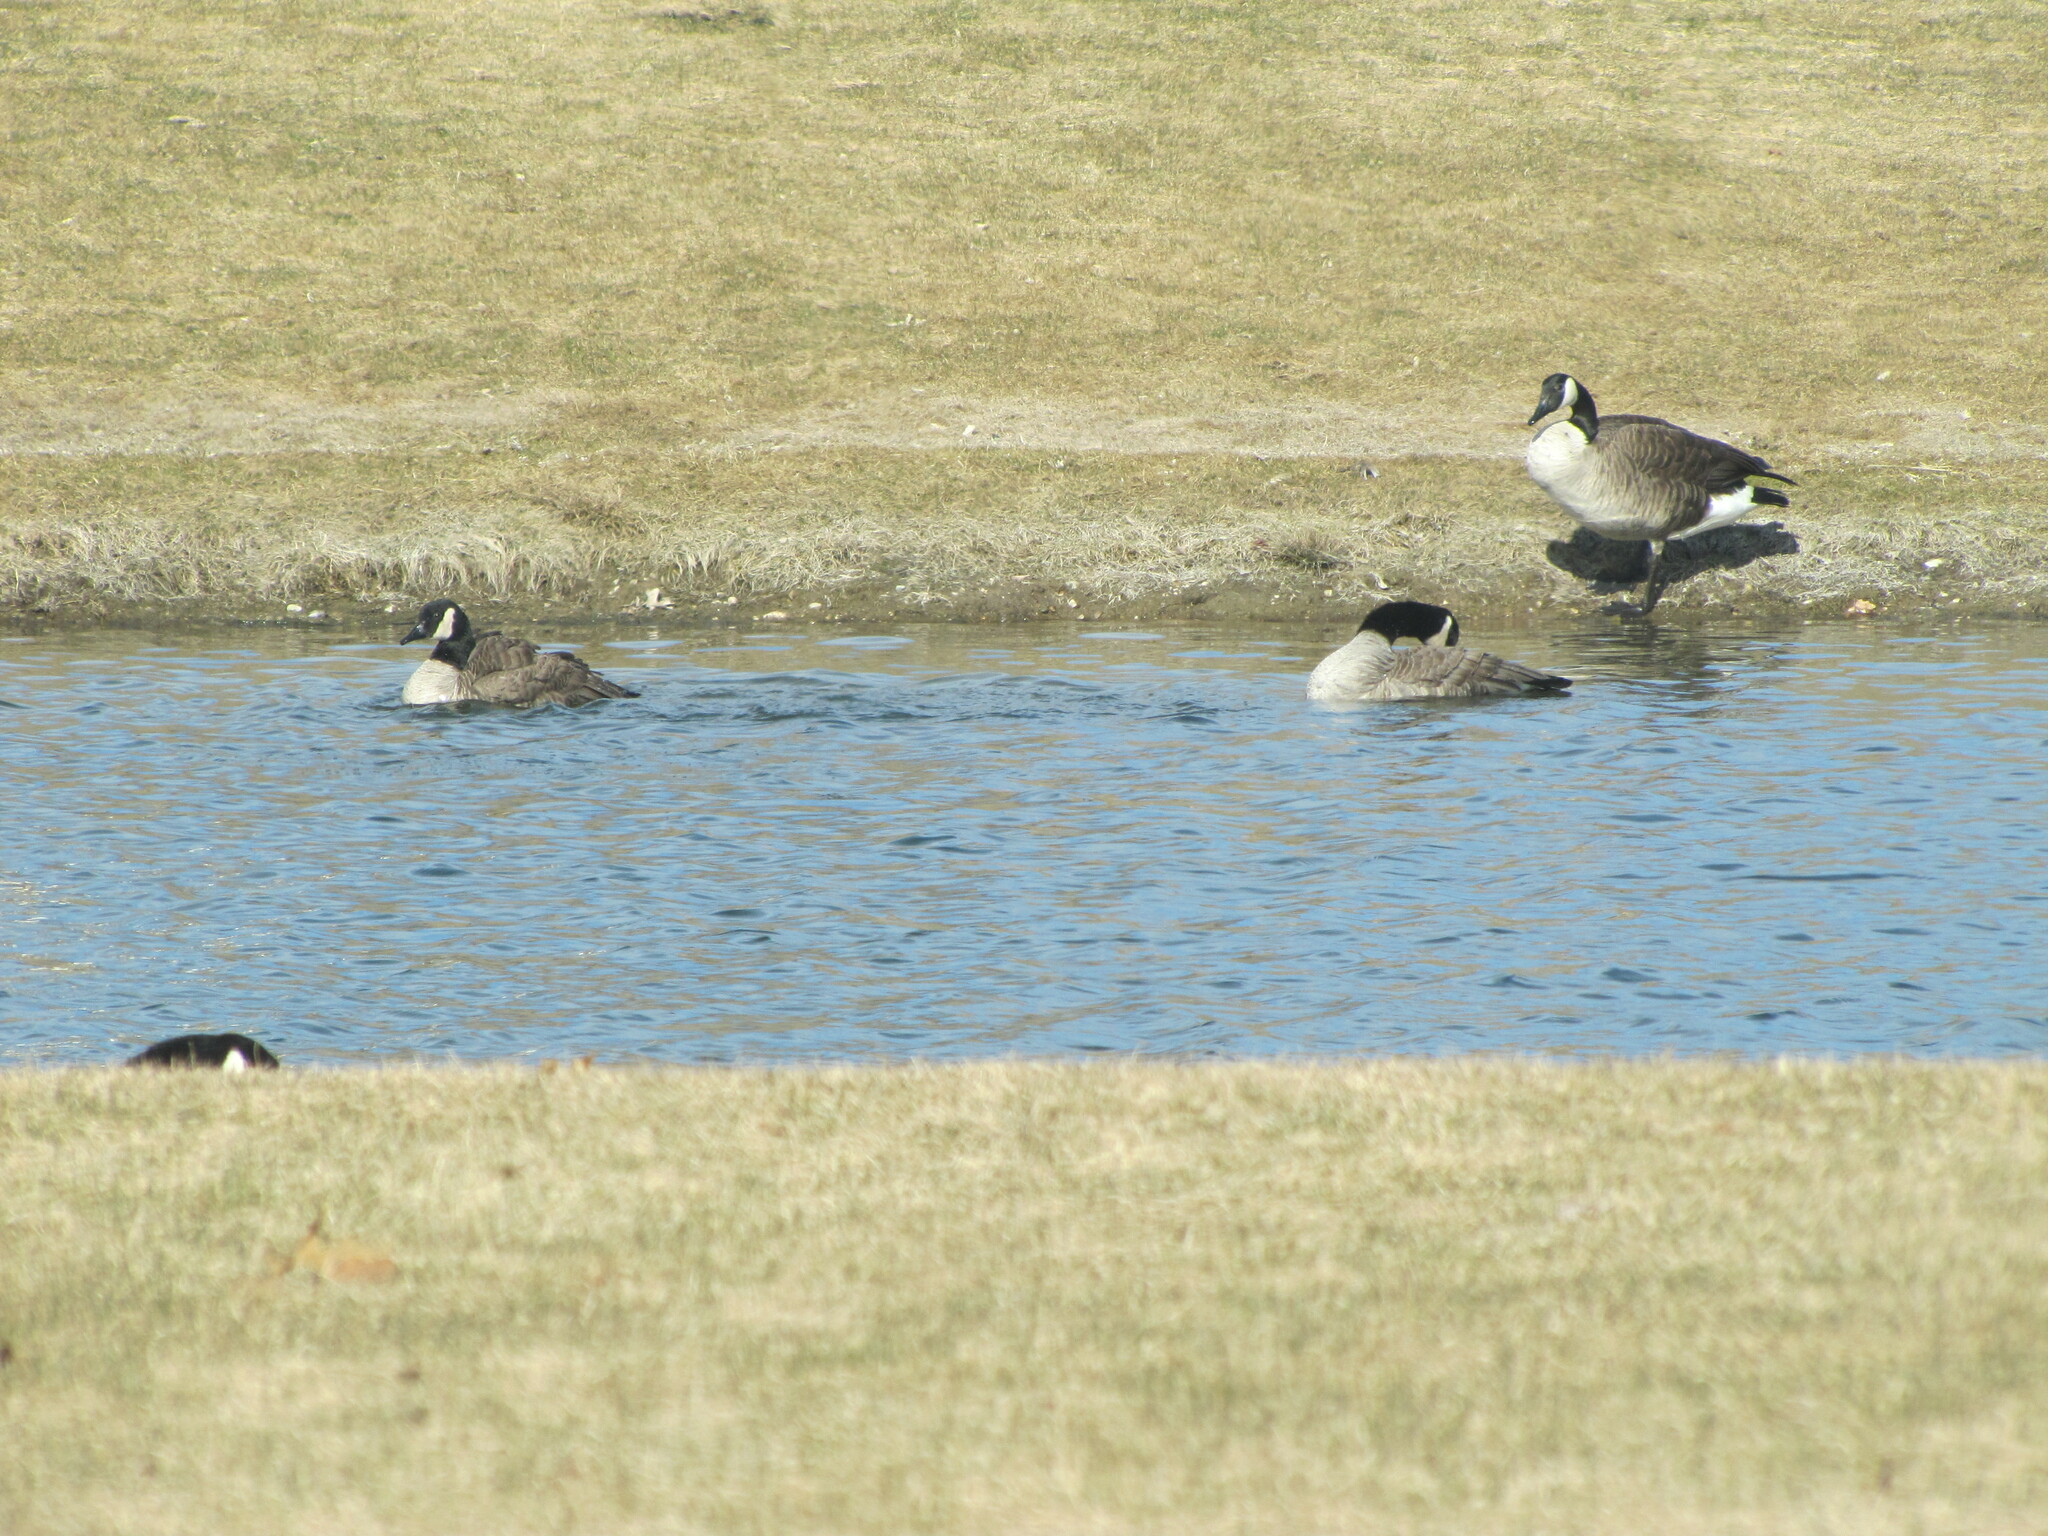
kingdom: Animalia
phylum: Chordata
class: Aves
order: Anseriformes
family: Anatidae
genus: Branta
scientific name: Branta canadensis
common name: Canada goose
